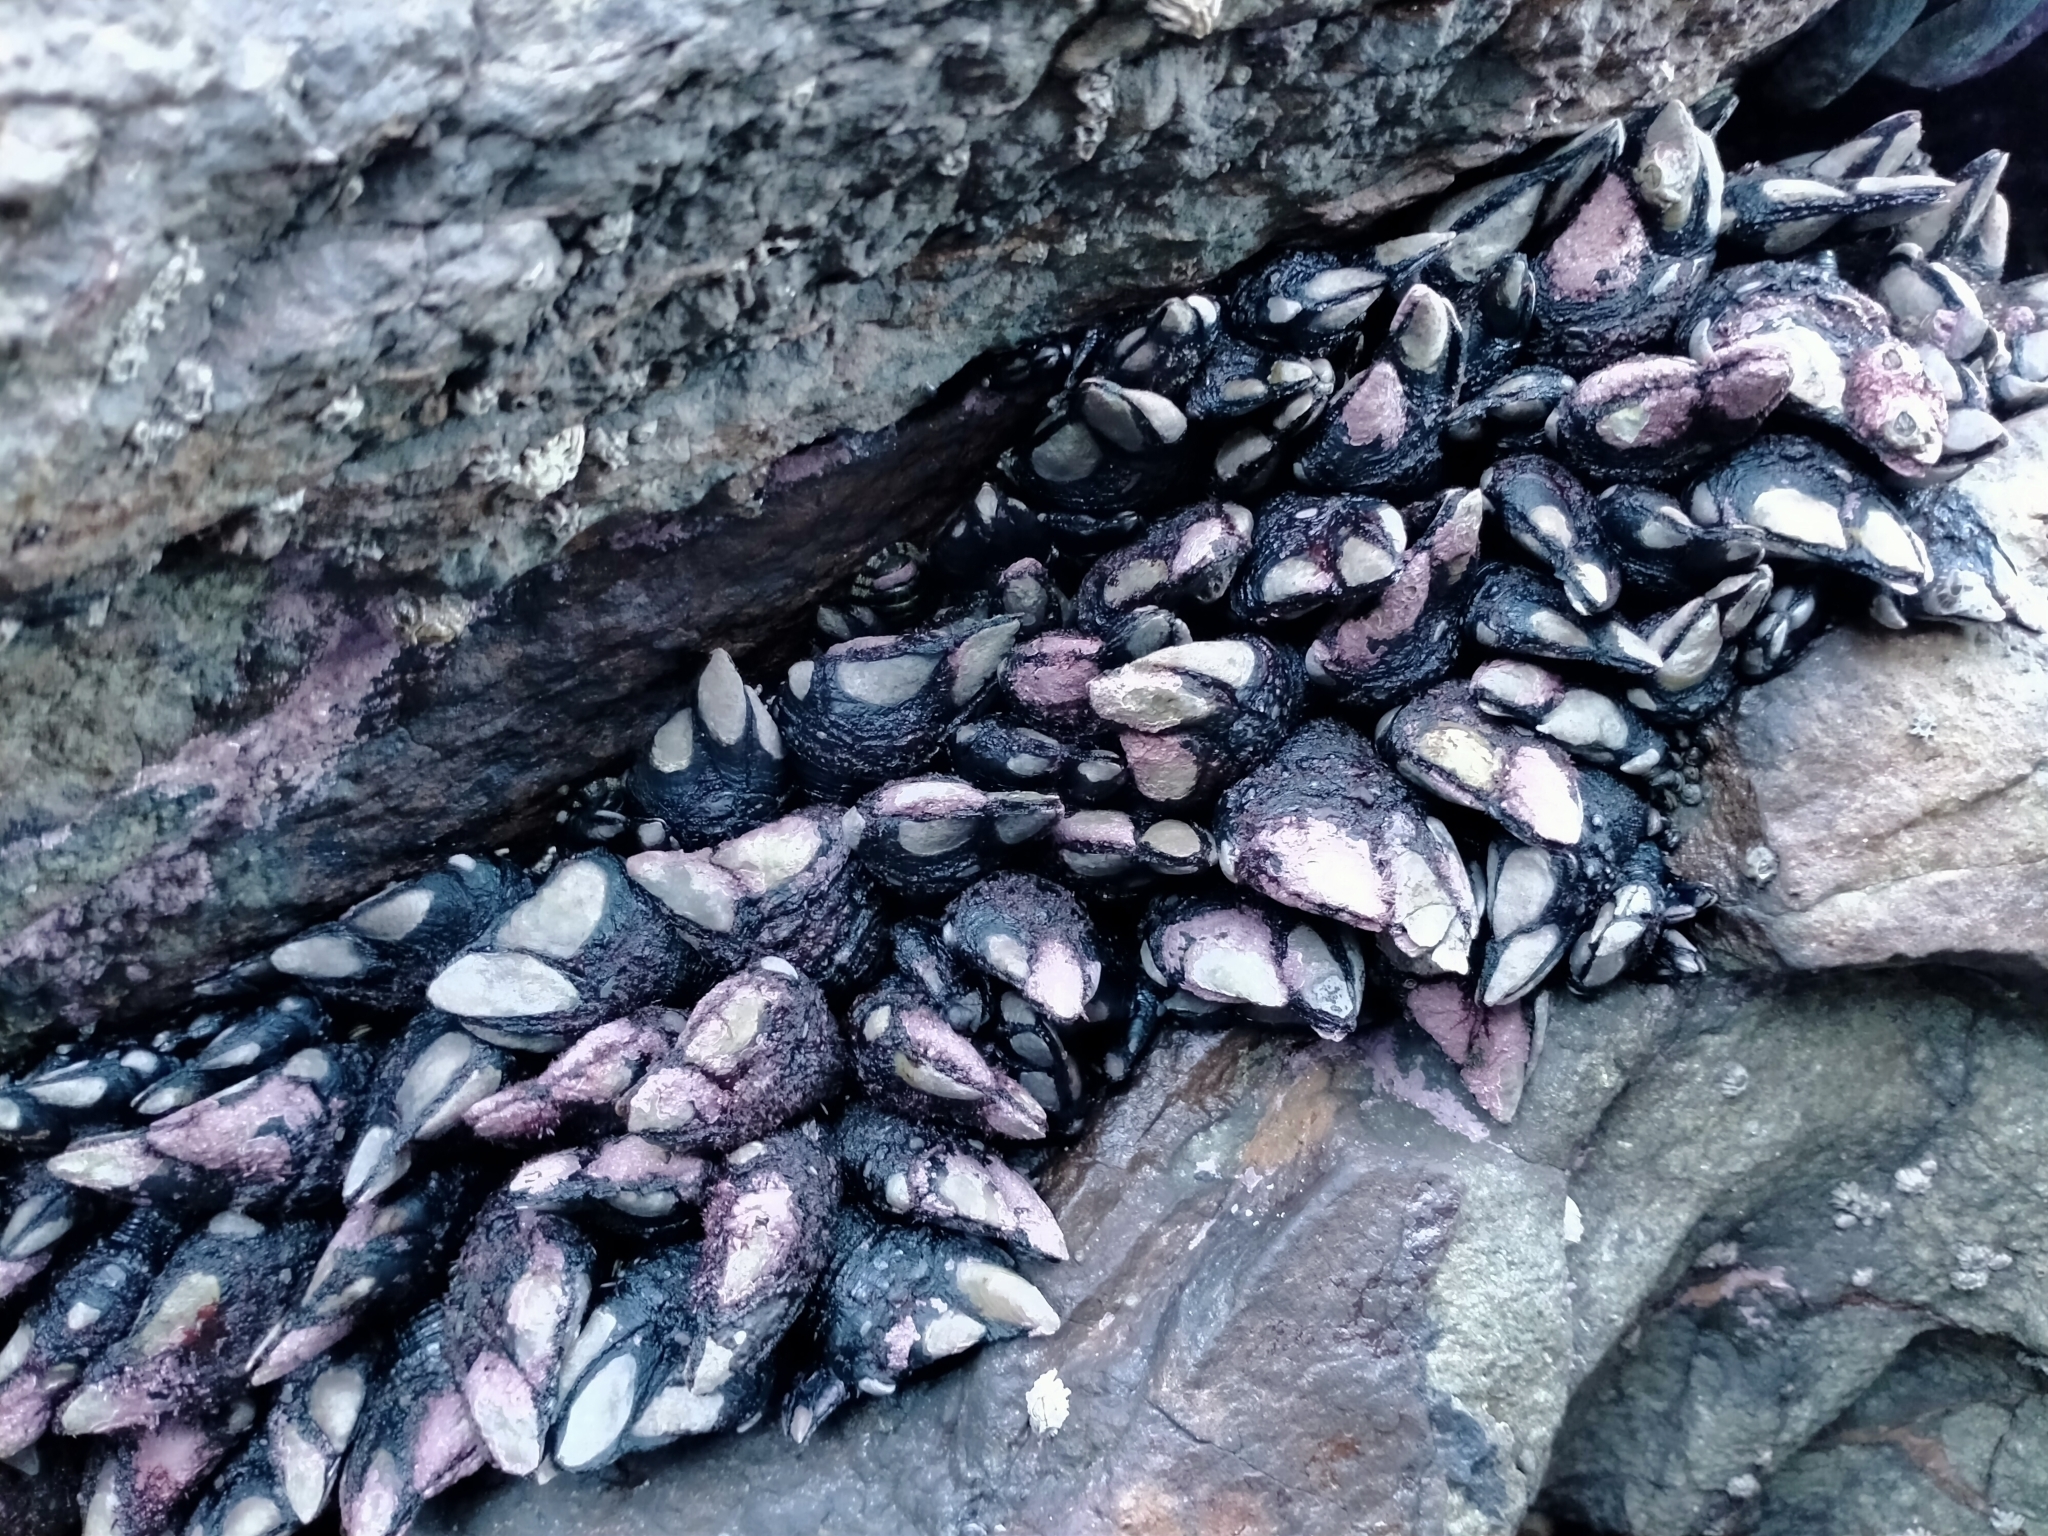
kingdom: Animalia
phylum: Arthropoda
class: Maxillopoda
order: Pedunculata
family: Calanticidae
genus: Calantica
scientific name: Calantica spinosa
